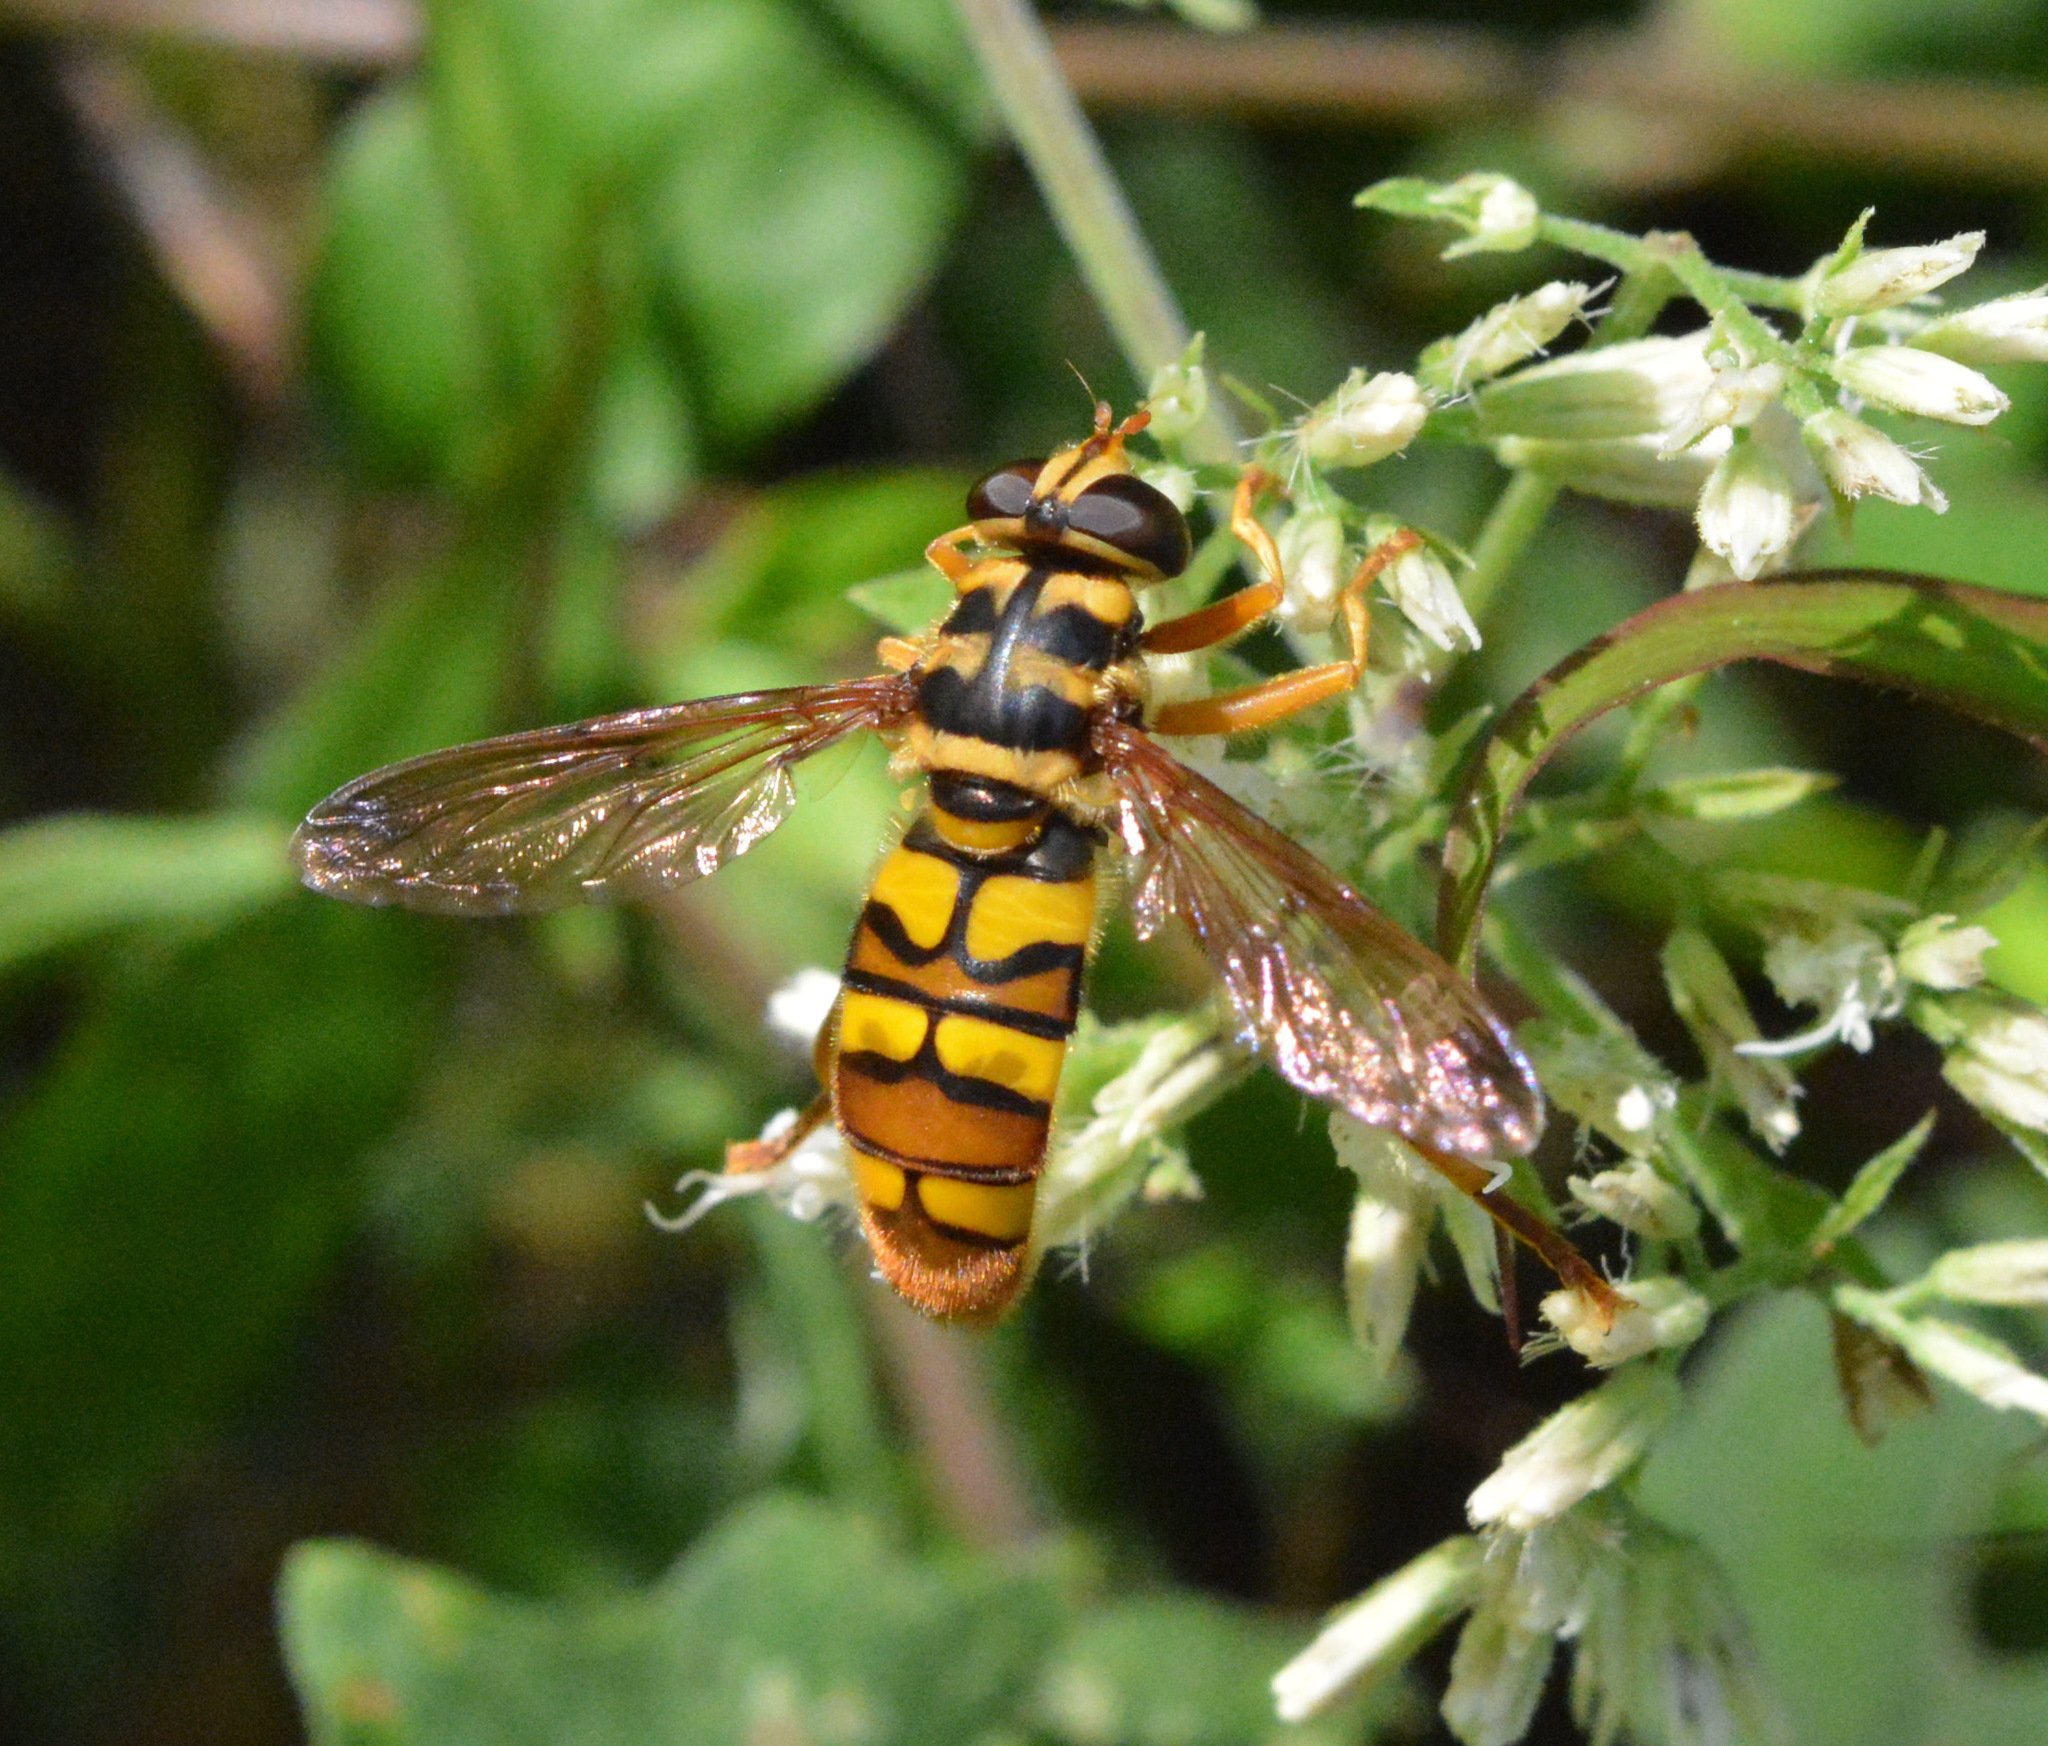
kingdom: Animalia
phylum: Arthropoda
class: Insecta
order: Diptera
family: Syrphidae
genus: Milesia
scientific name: Milesia virginiensis
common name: Virginia giant
